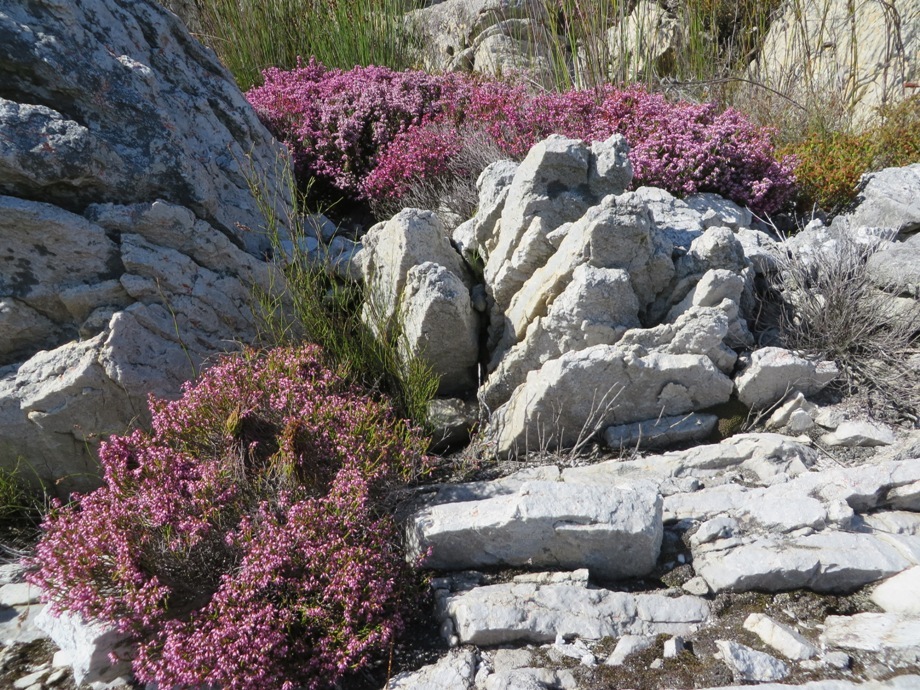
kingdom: Plantae
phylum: Tracheophyta
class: Magnoliopsida
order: Ericales
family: Ericaceae
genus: Erica
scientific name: Erica equisetifolia
